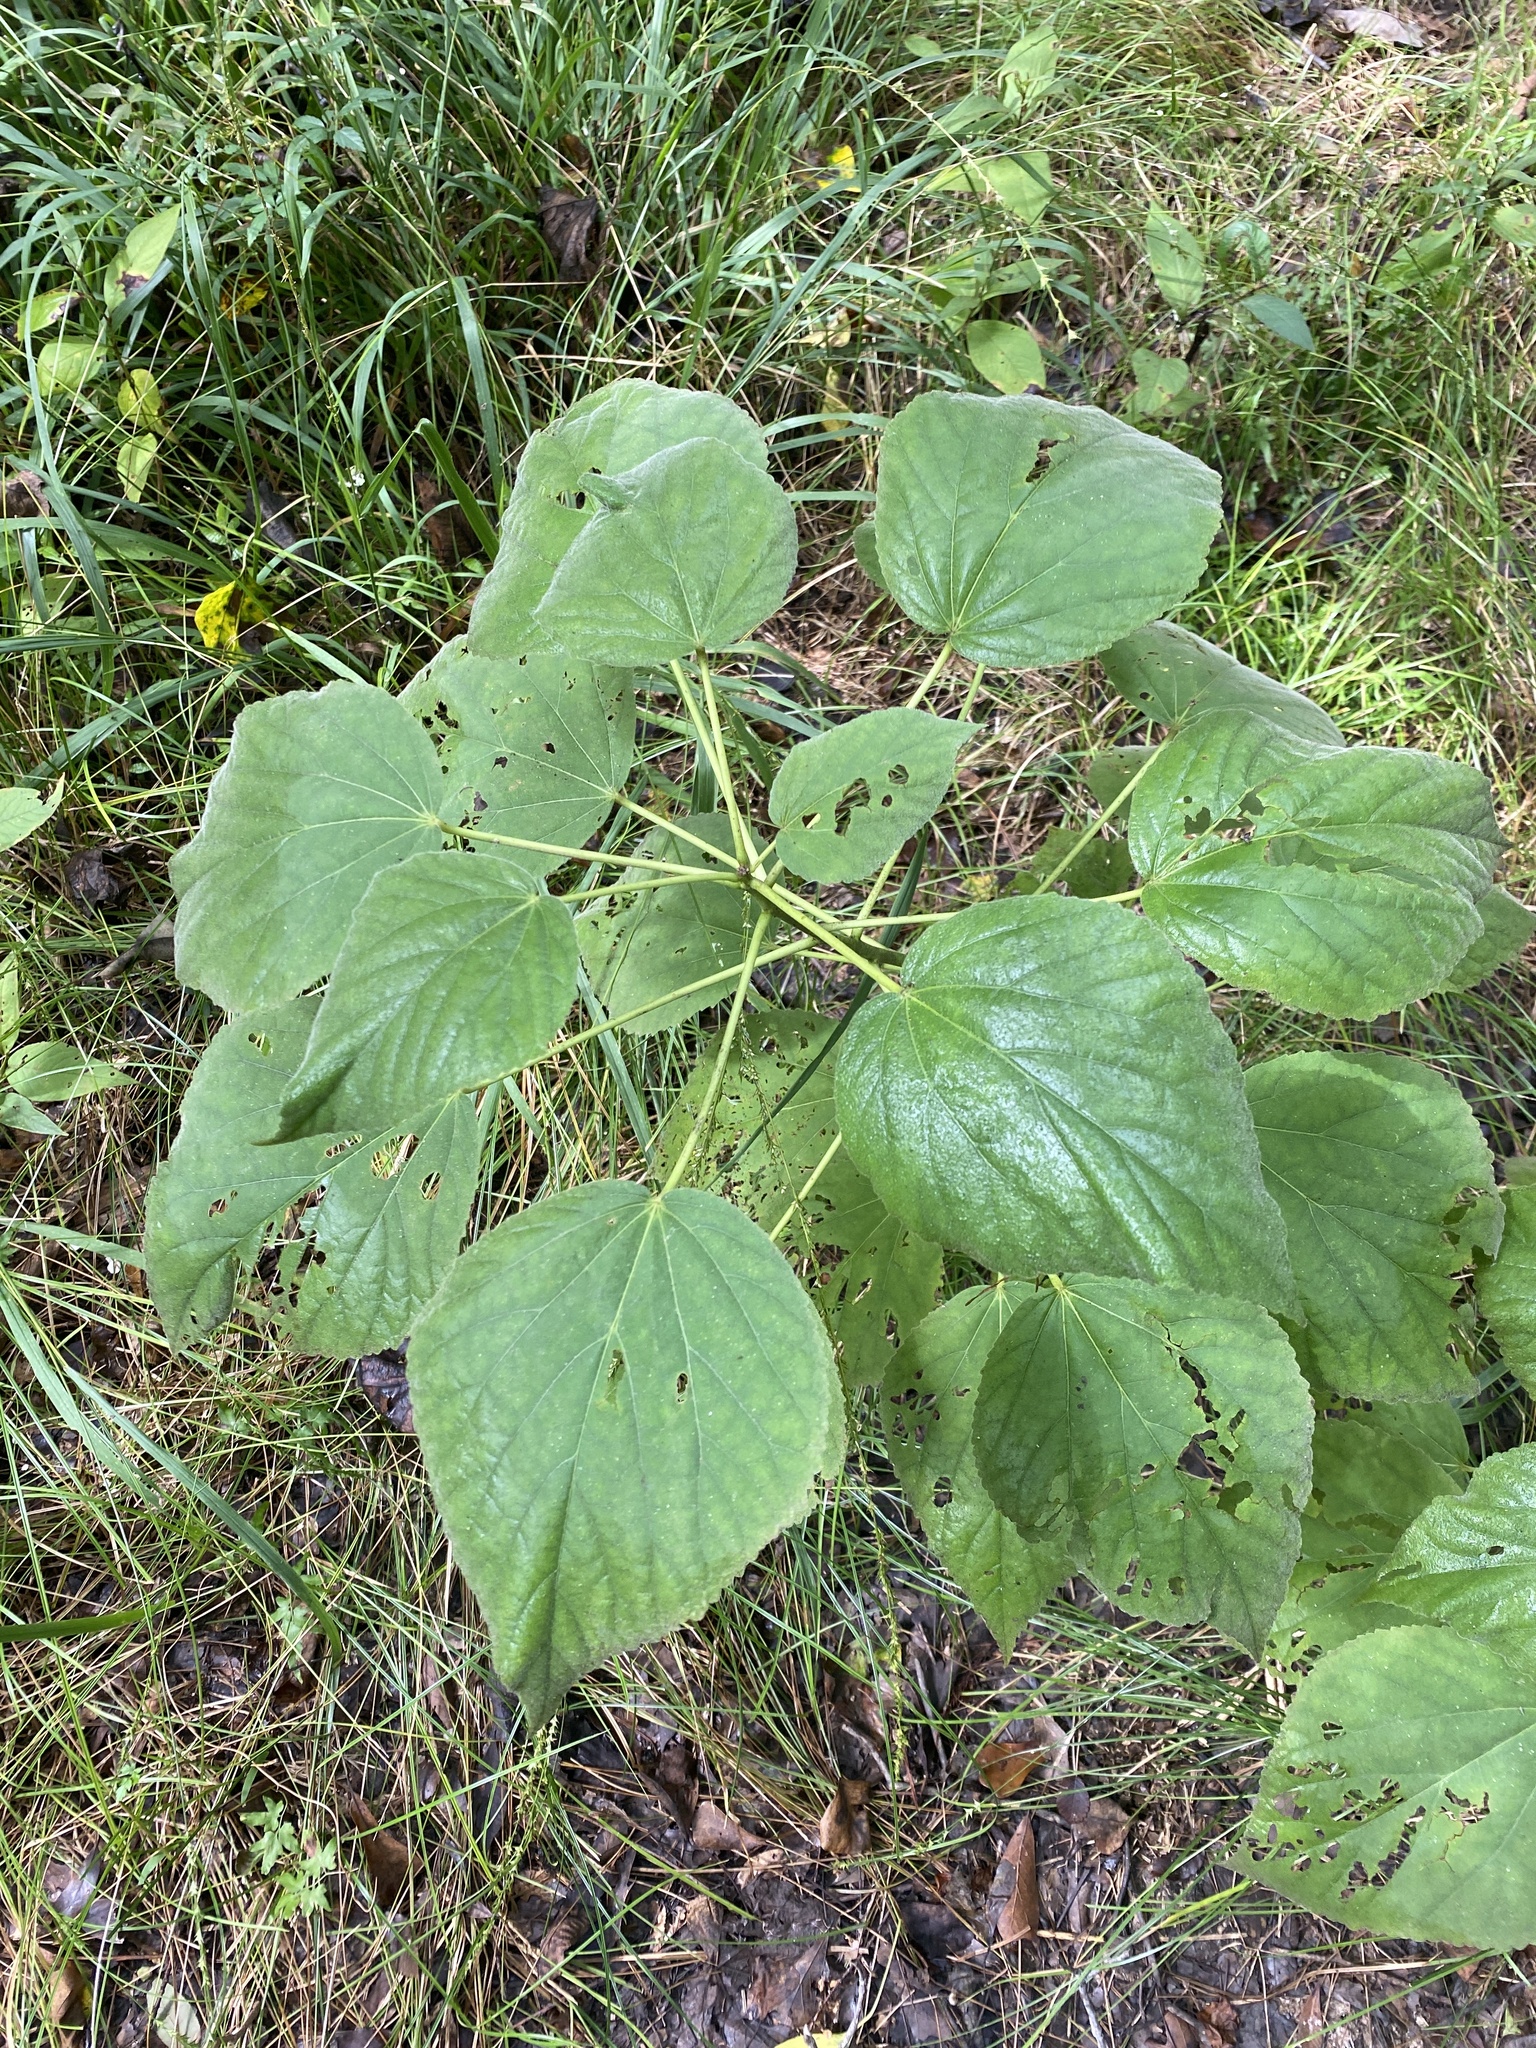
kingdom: Plantae
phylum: Tracheophyta
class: Magnoliopsida
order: Malvales
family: Malvaceae
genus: Hibiscus
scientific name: Hibiscus moscheutos
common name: Common rose-mallow
